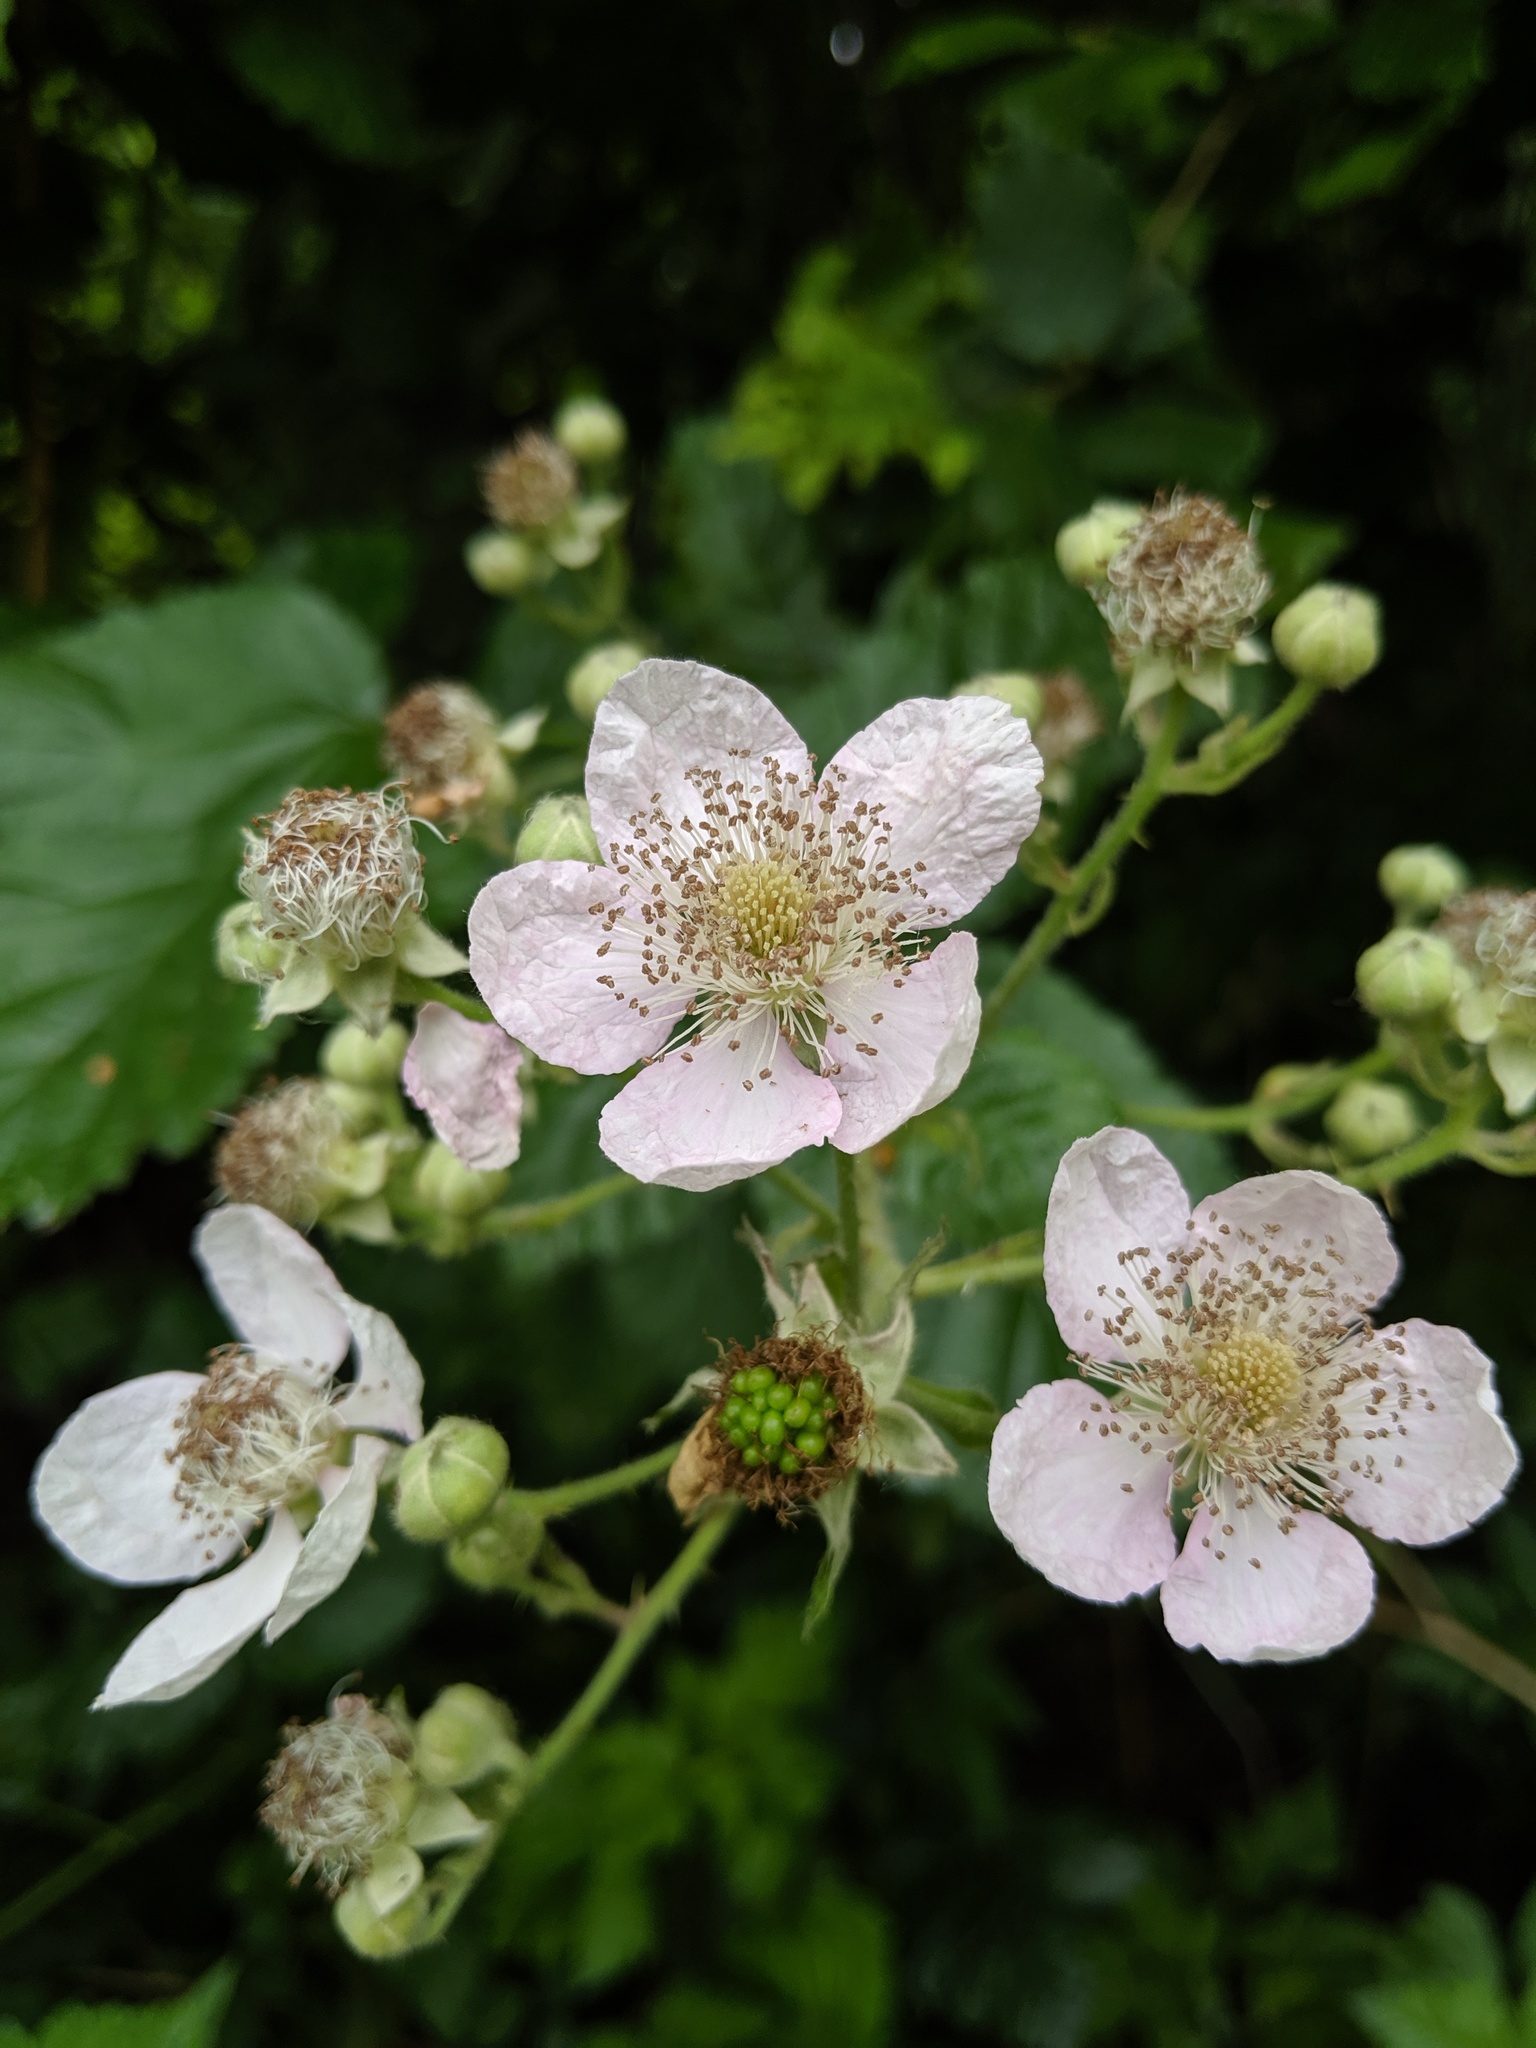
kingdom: Plantae
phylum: Tracheophyta
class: Magnoliopsida
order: Rosales
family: Rosaceae
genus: Rubus
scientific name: Rubus armeniacus
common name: Himalayan blackberry
